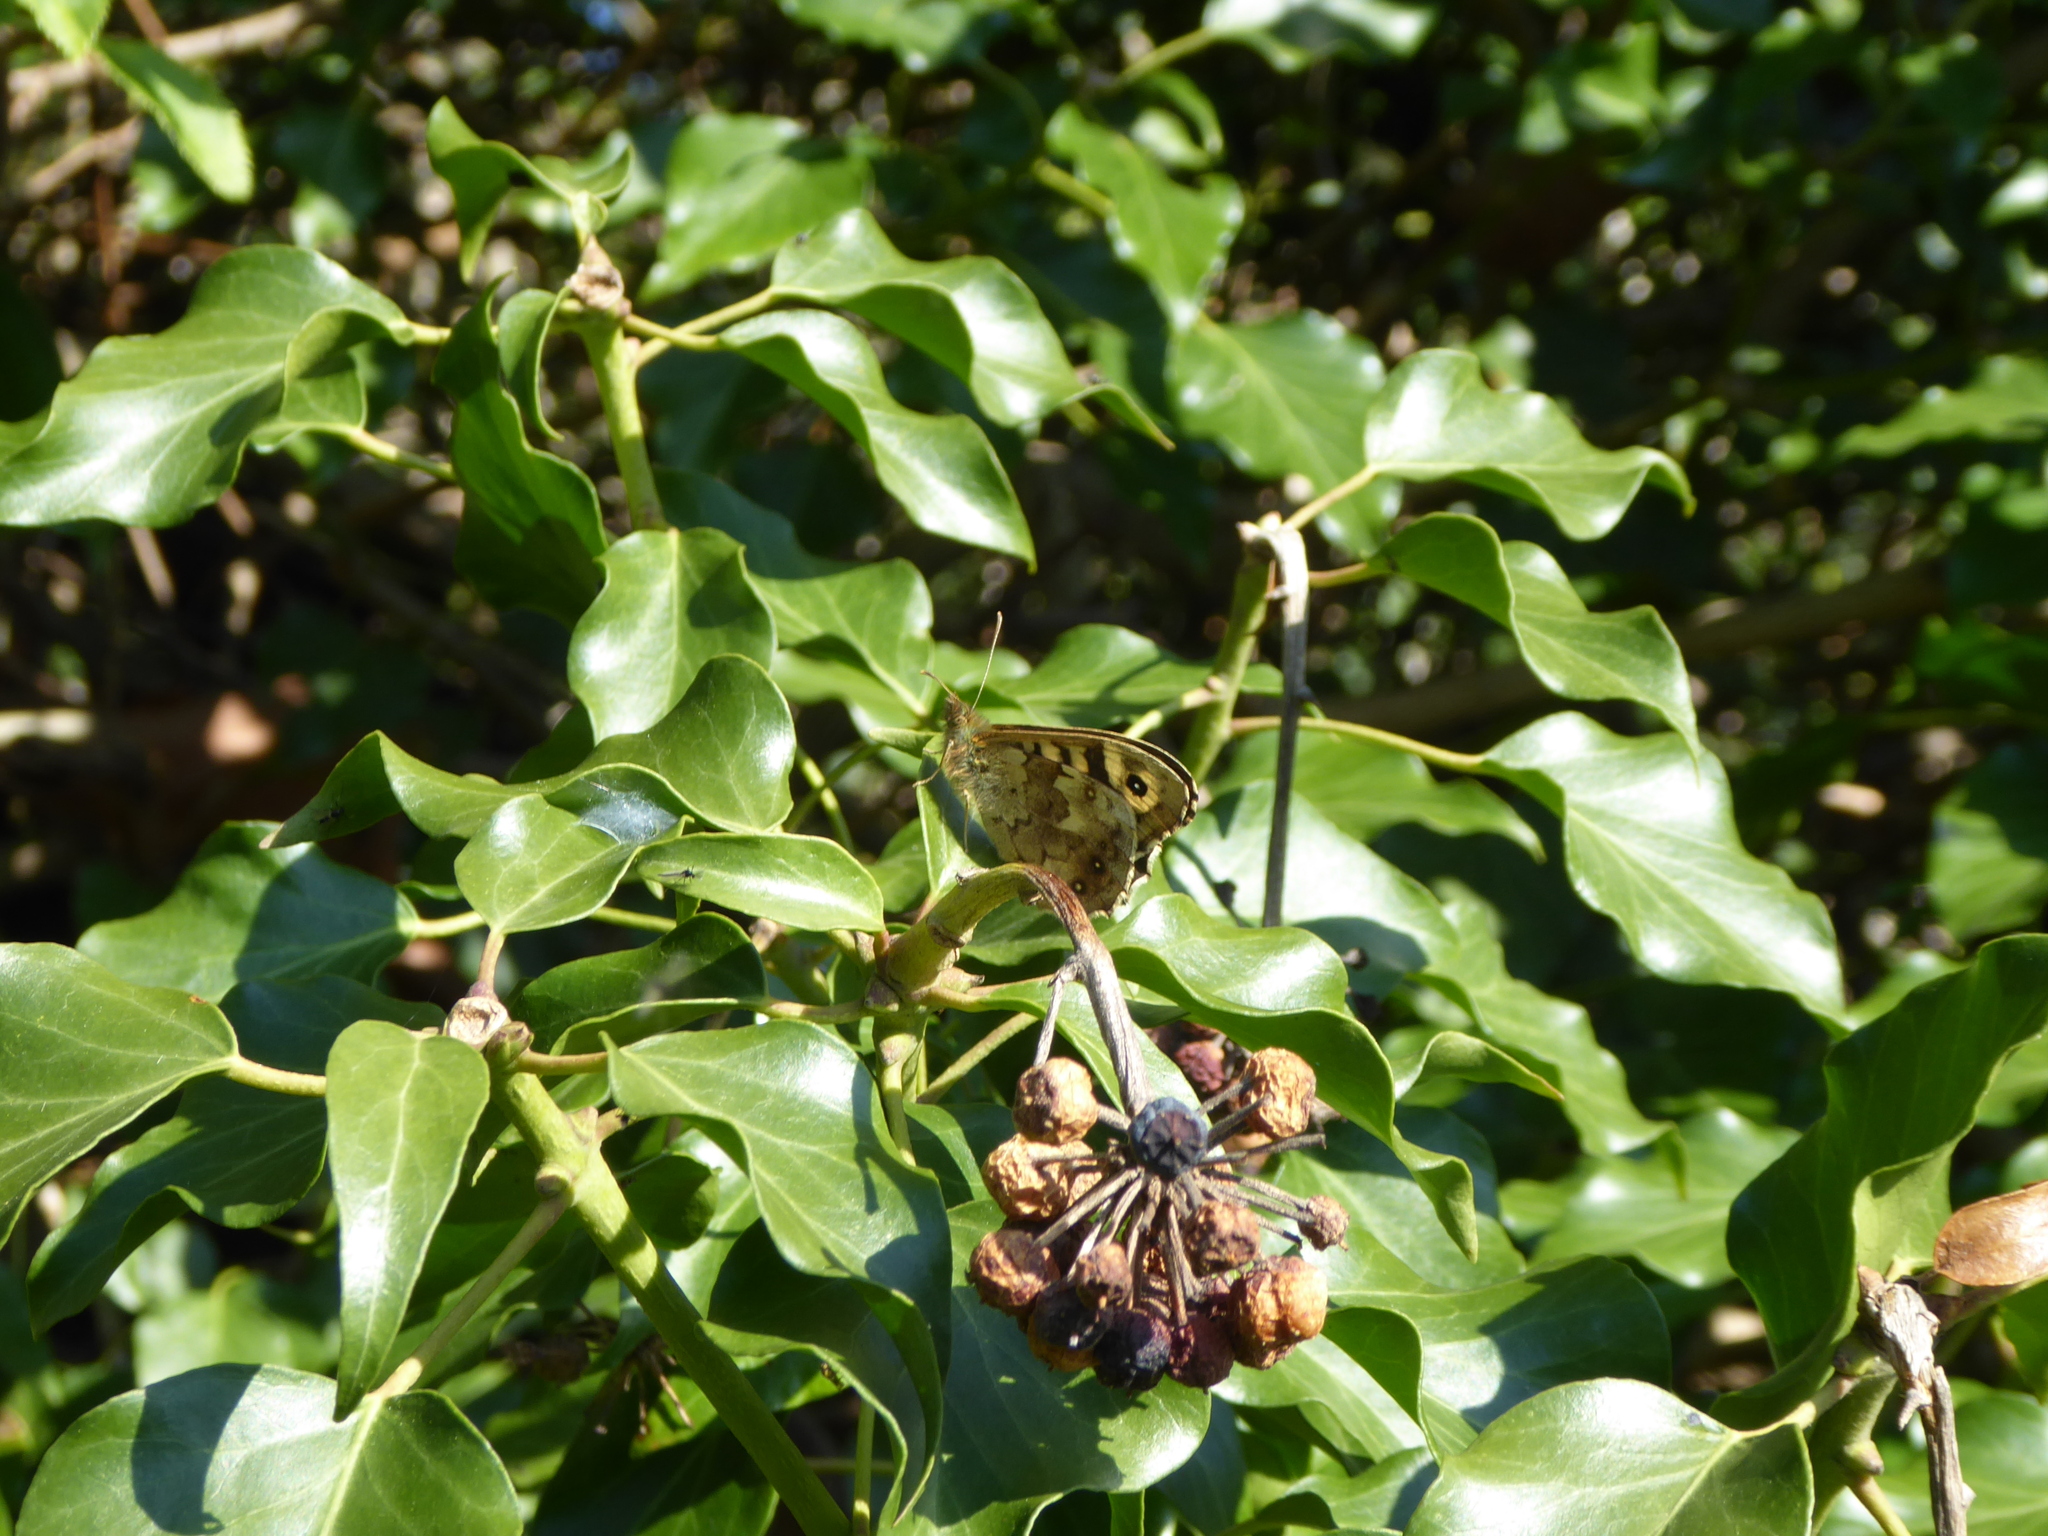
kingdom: Animalia
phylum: Arthropoda
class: Insecta
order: Lepidoptera
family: Nymphalidae
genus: Pararge
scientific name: Pararge aegeria
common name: Speckled wood
